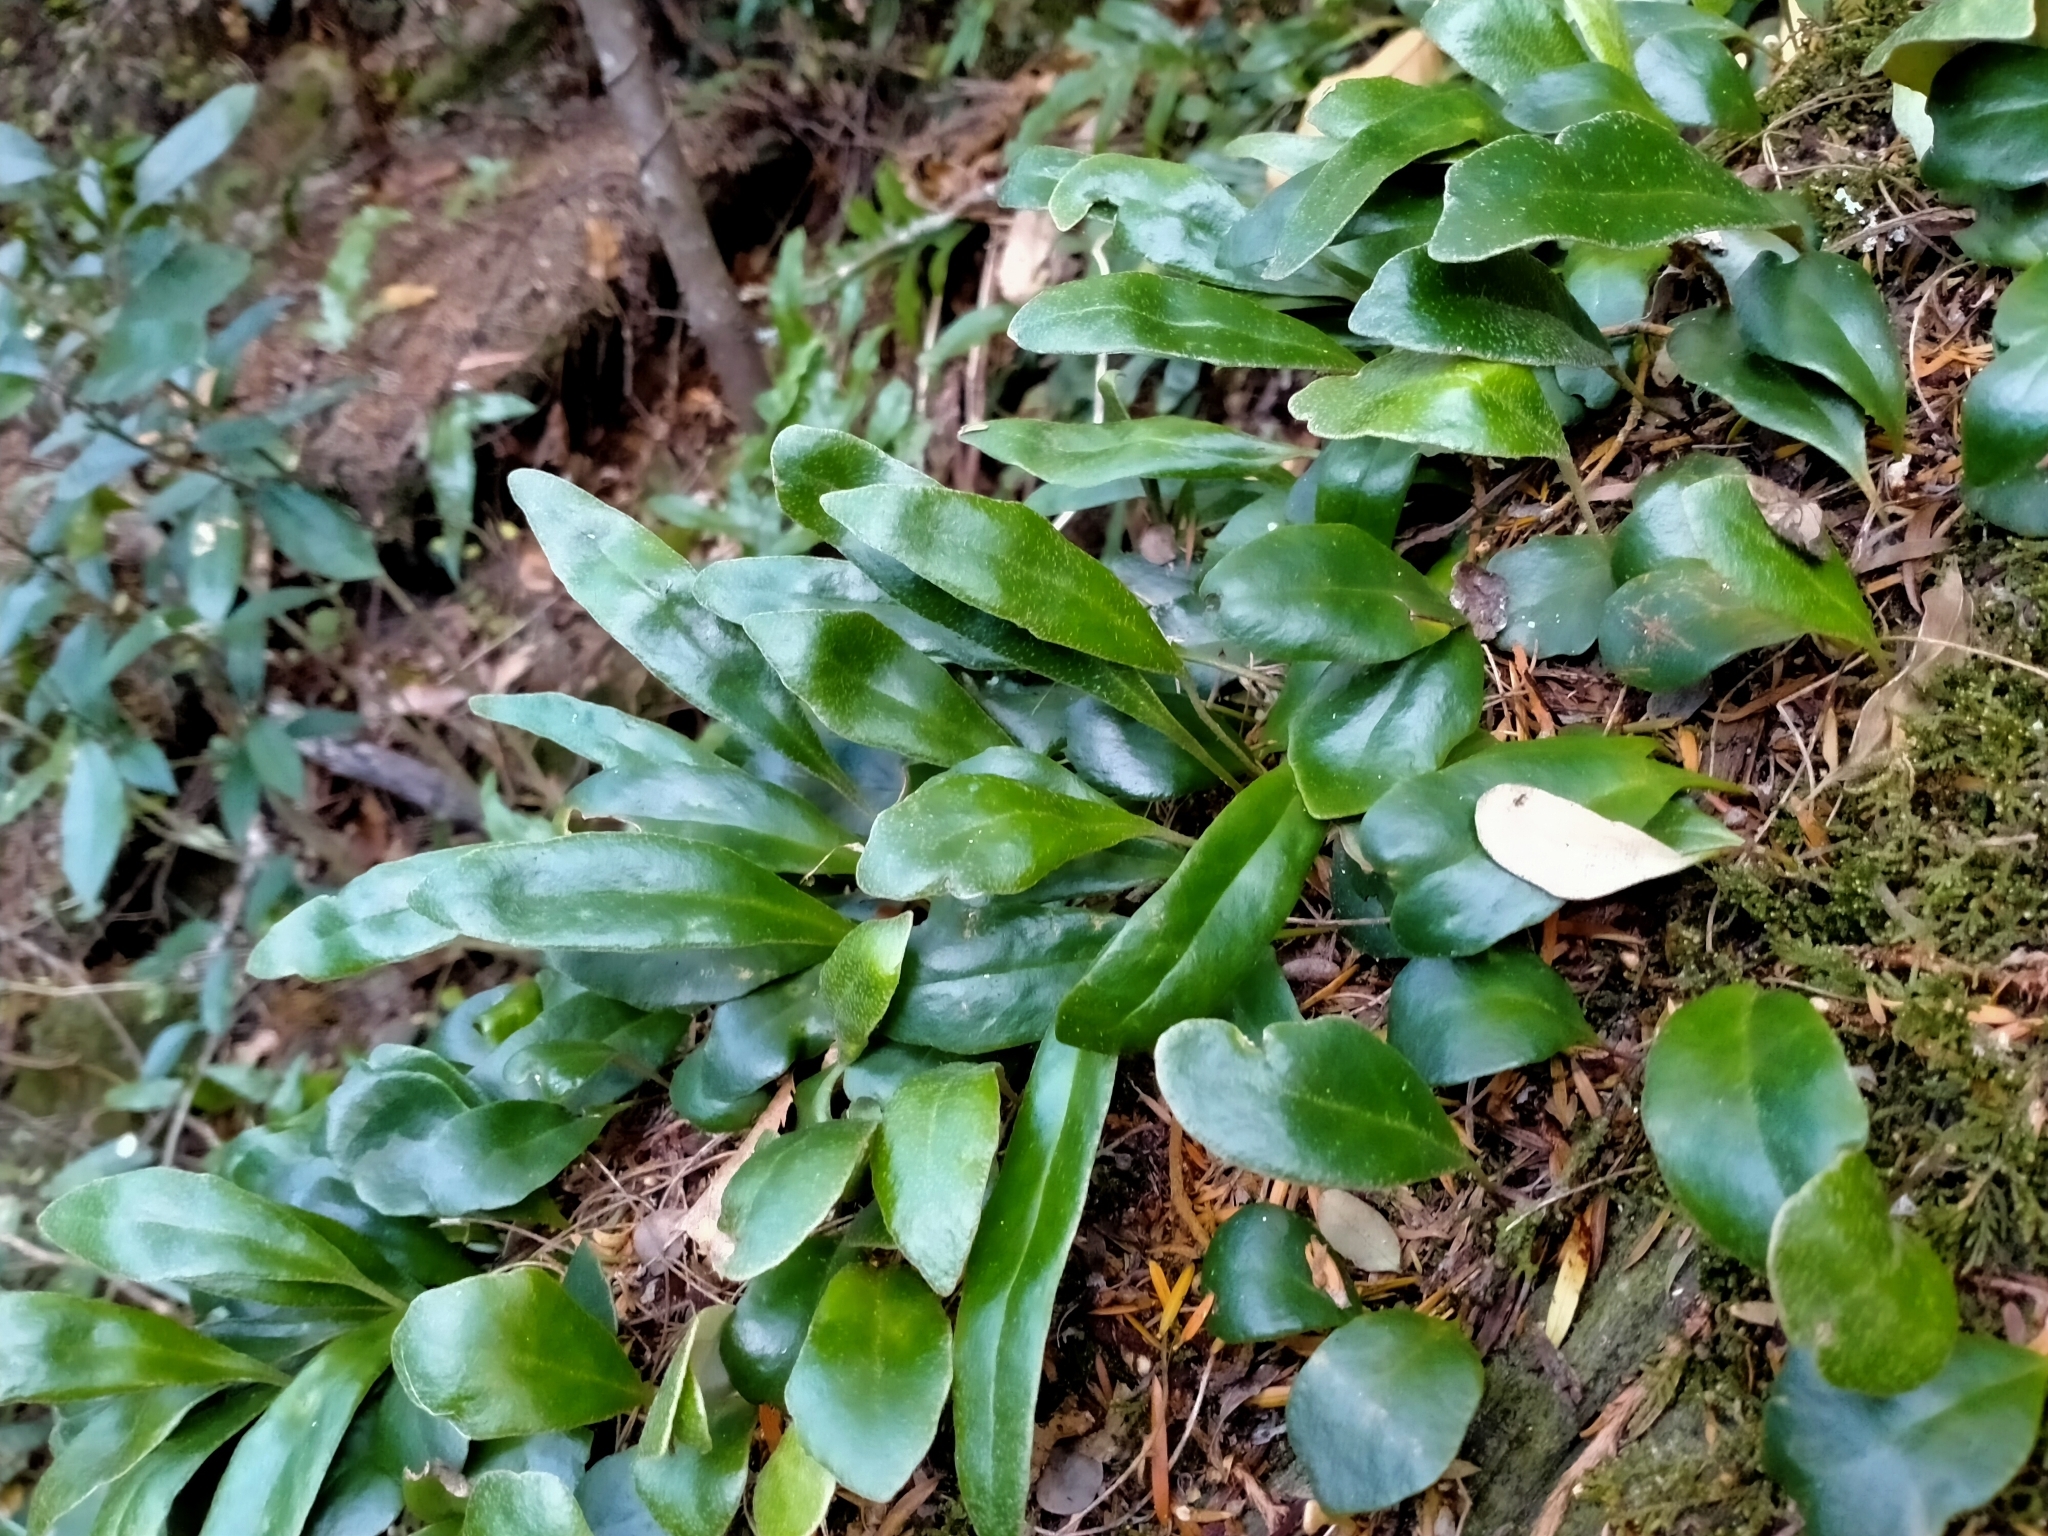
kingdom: Plantae
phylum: Tracheophyta
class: Polypodiopsida
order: Polypodiales
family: Polypodiaceae
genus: Pyrrosia
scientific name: Pyrrosia eleagnifolia
